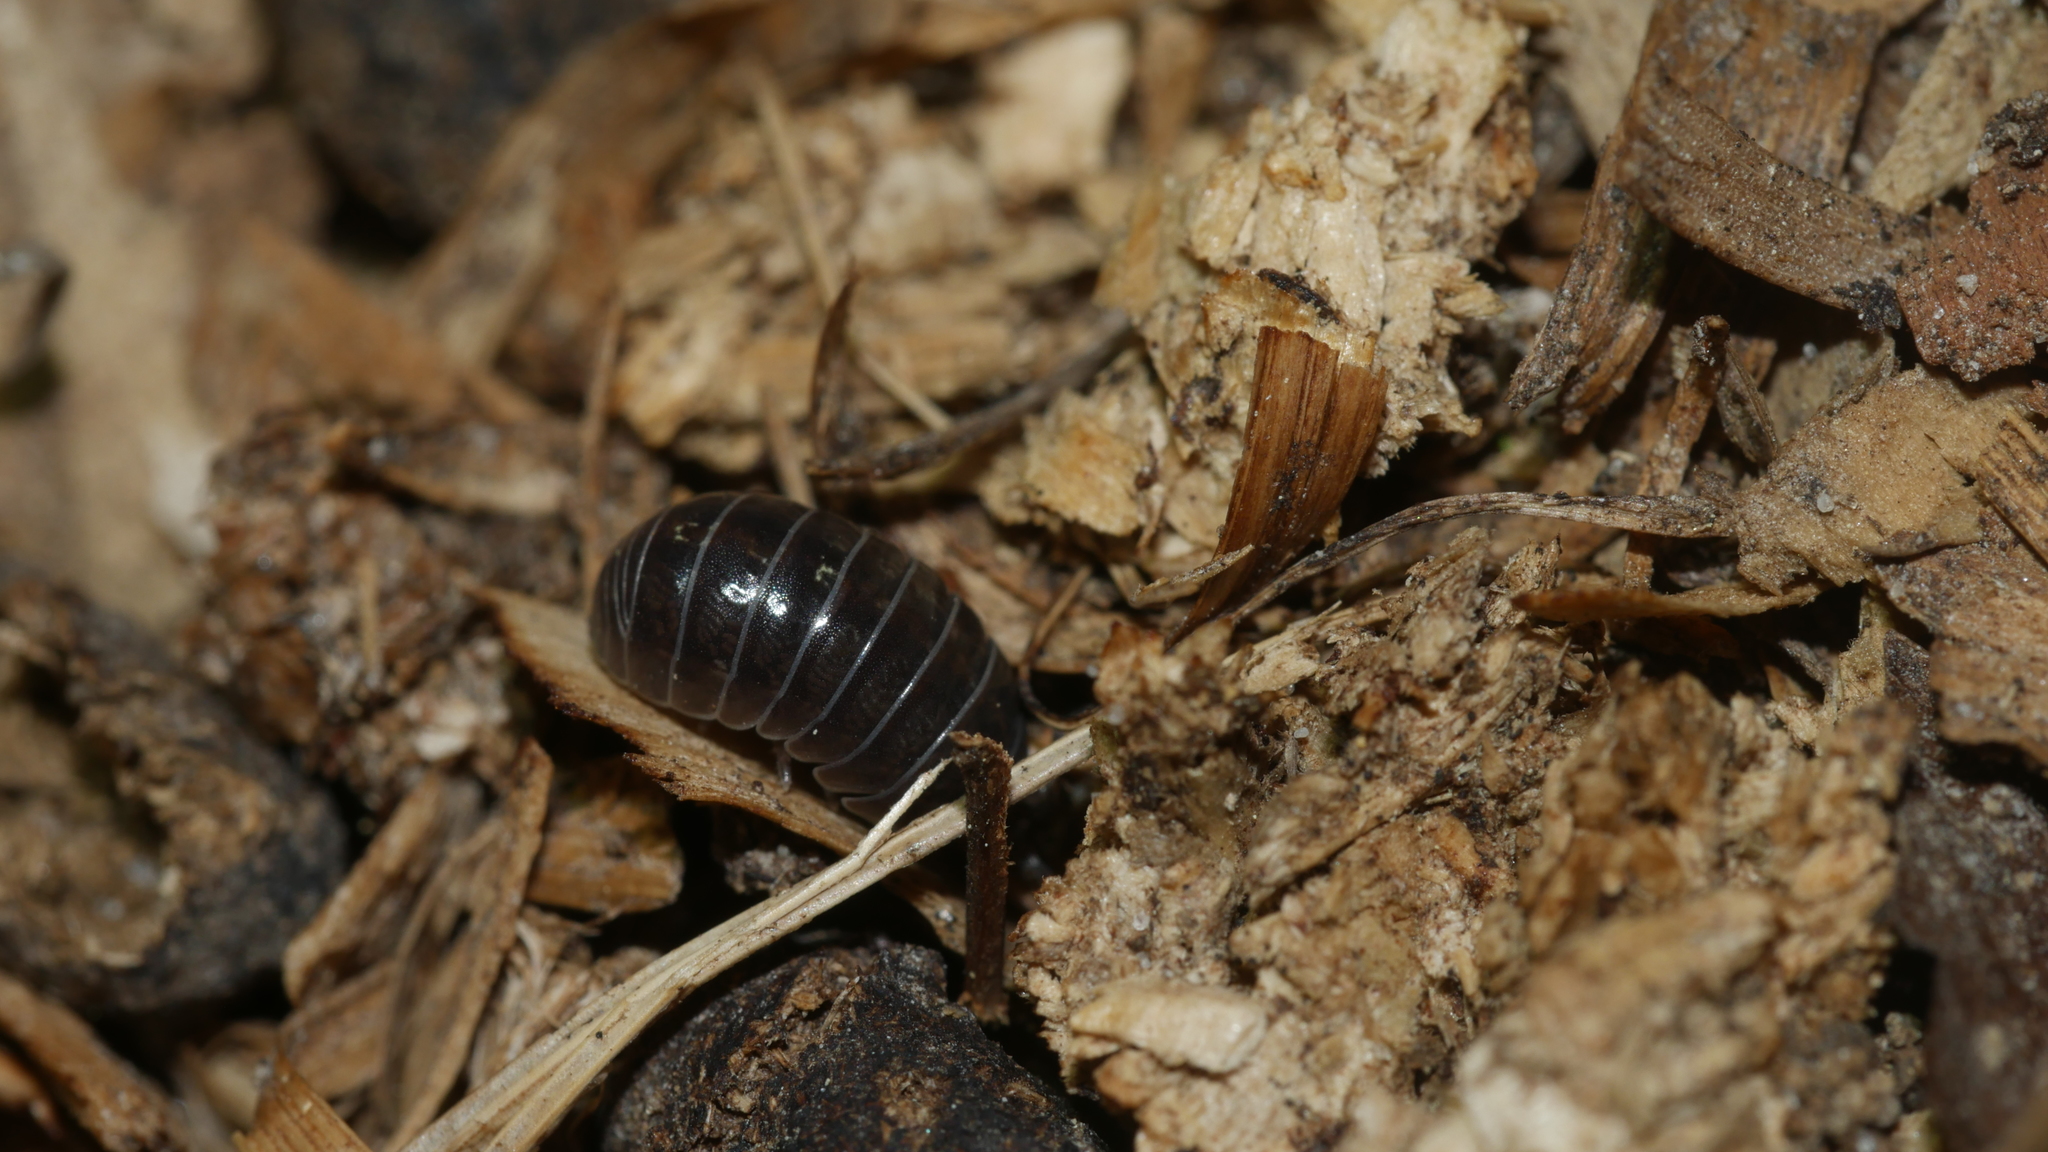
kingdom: Animalia
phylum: Arthropoda
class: Malacostraca
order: Isopoda
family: Armadillidiidae
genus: Armadillidium
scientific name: Armadillidium vulgare
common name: Common pill woodlouse
